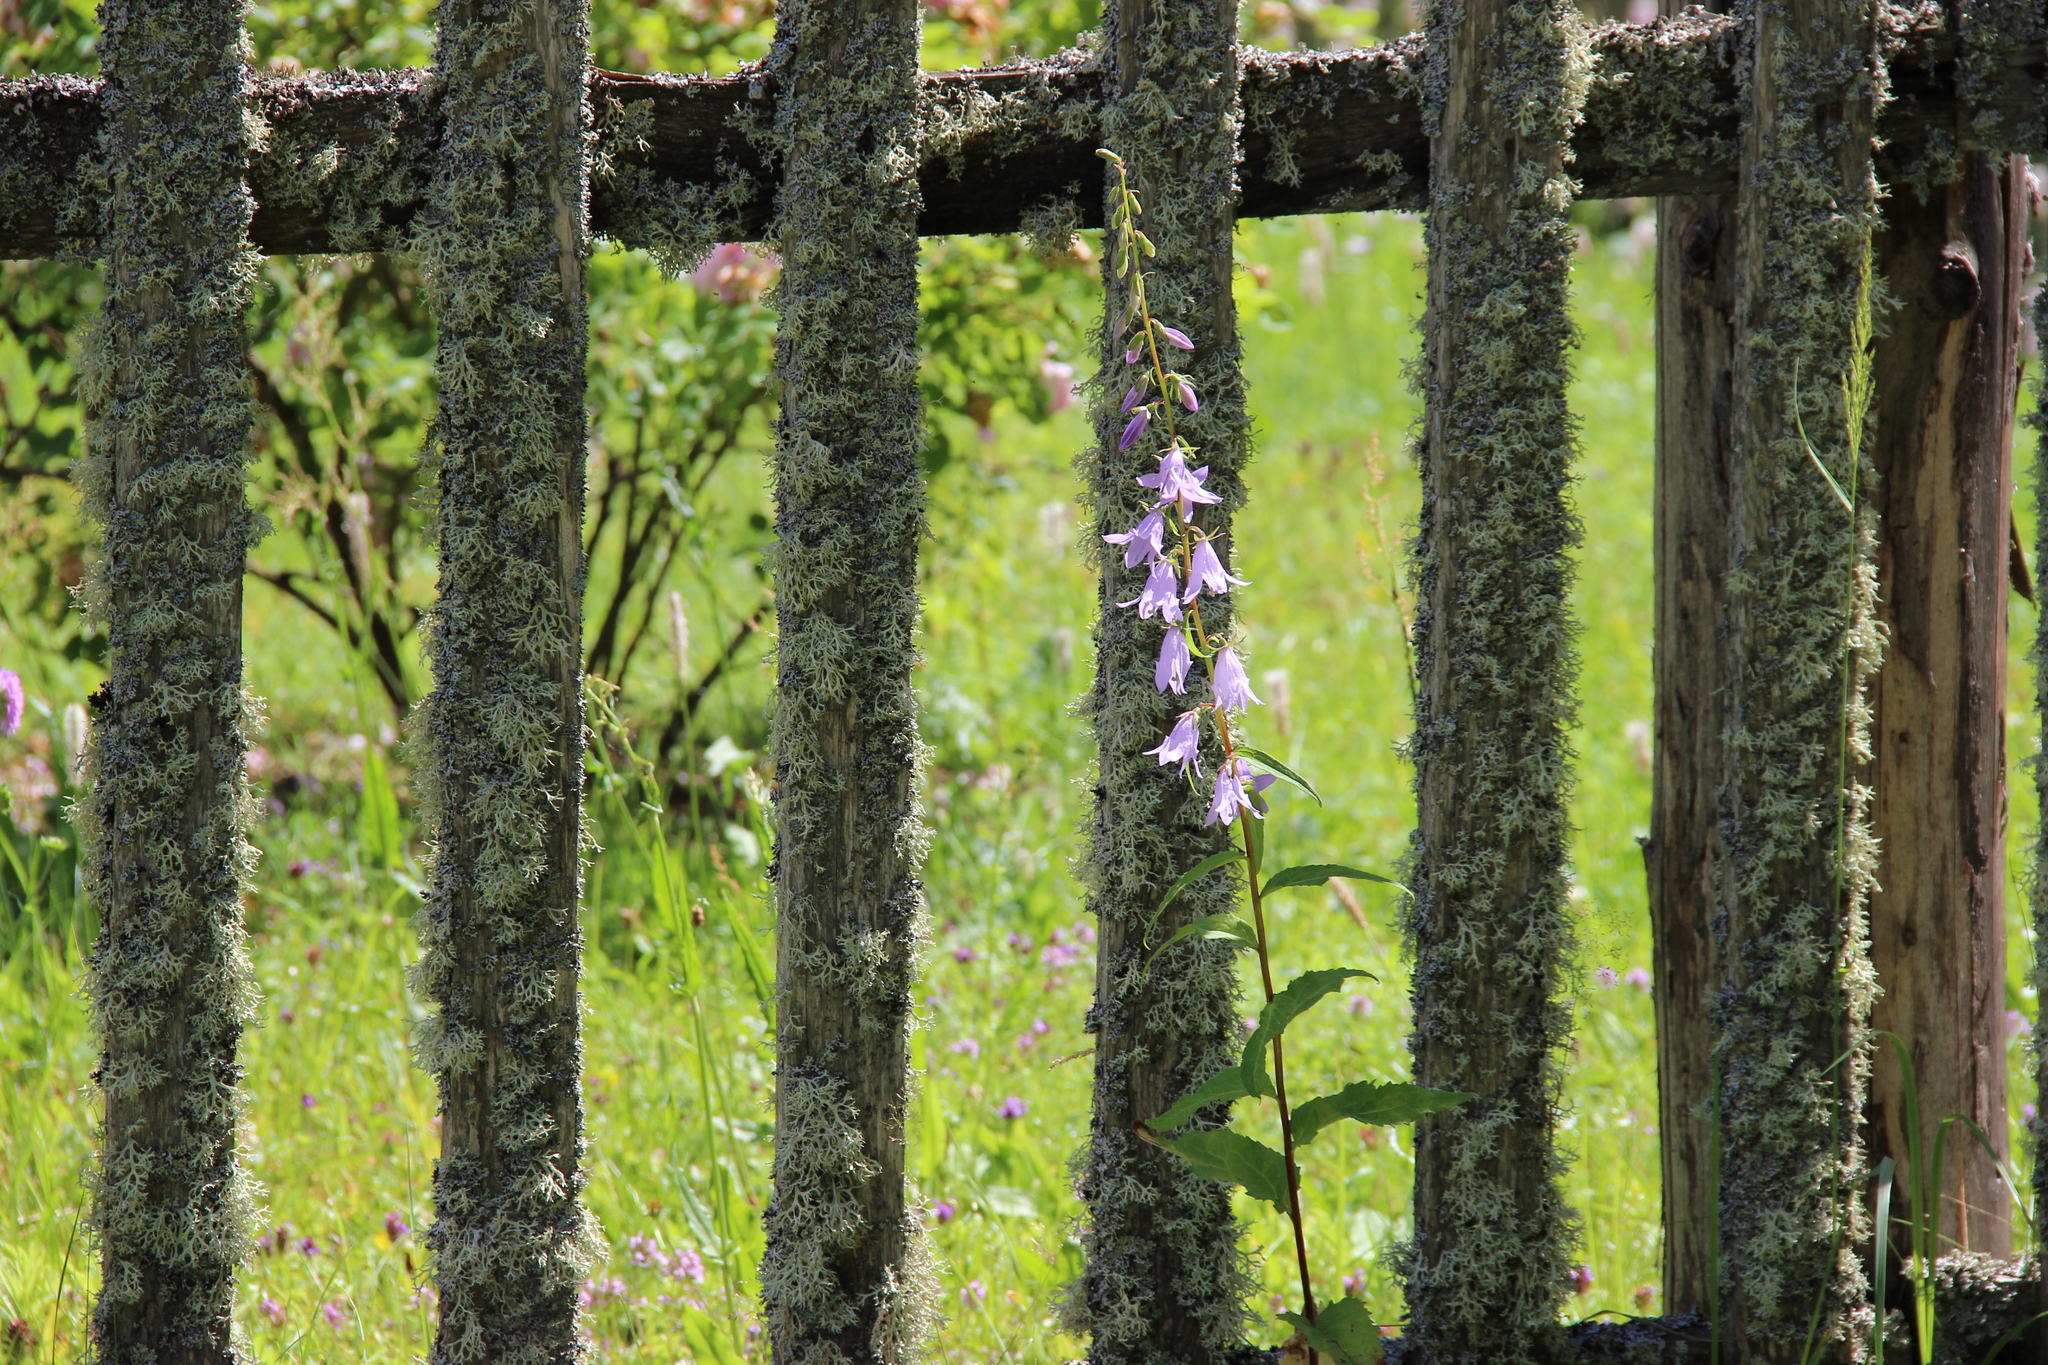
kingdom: Plantae
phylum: Tracheophyta
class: Magnoliopsida
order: Asterales
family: Campanulaceae
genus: Campanula
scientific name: Campanula rapunculoides
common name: Creeping bellflower
